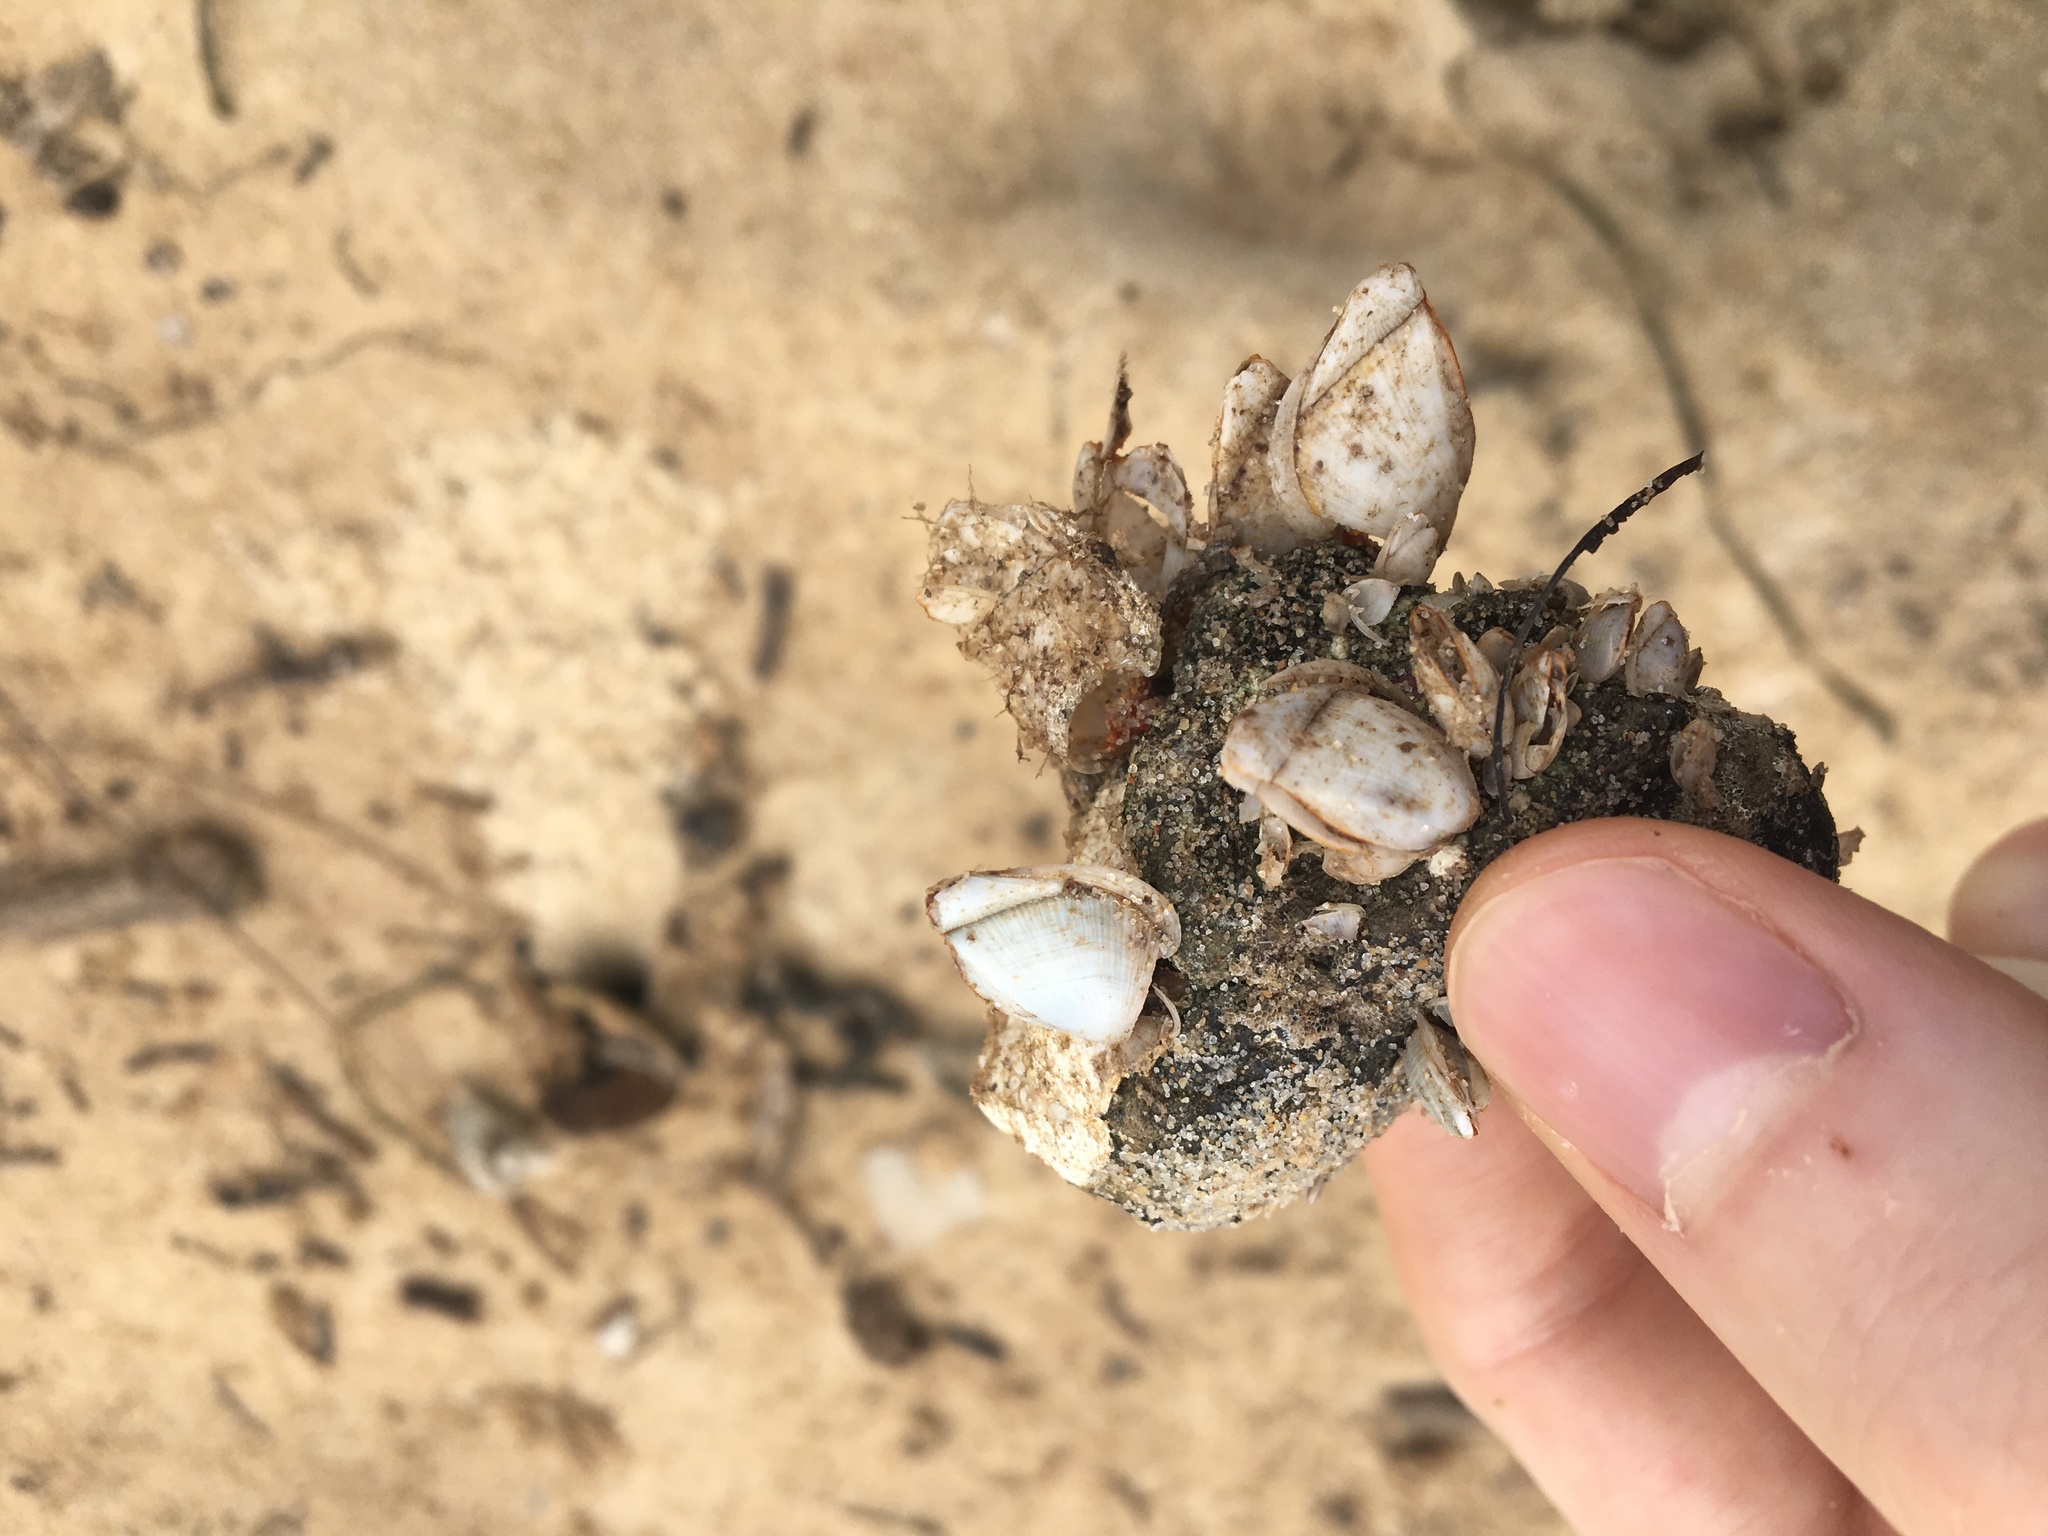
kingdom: Animalia
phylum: Arthropoda
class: Maxillopoda
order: Pedunculata
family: Lepadidae
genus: Lepas
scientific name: Lepas anserifera
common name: Goose barnacle
